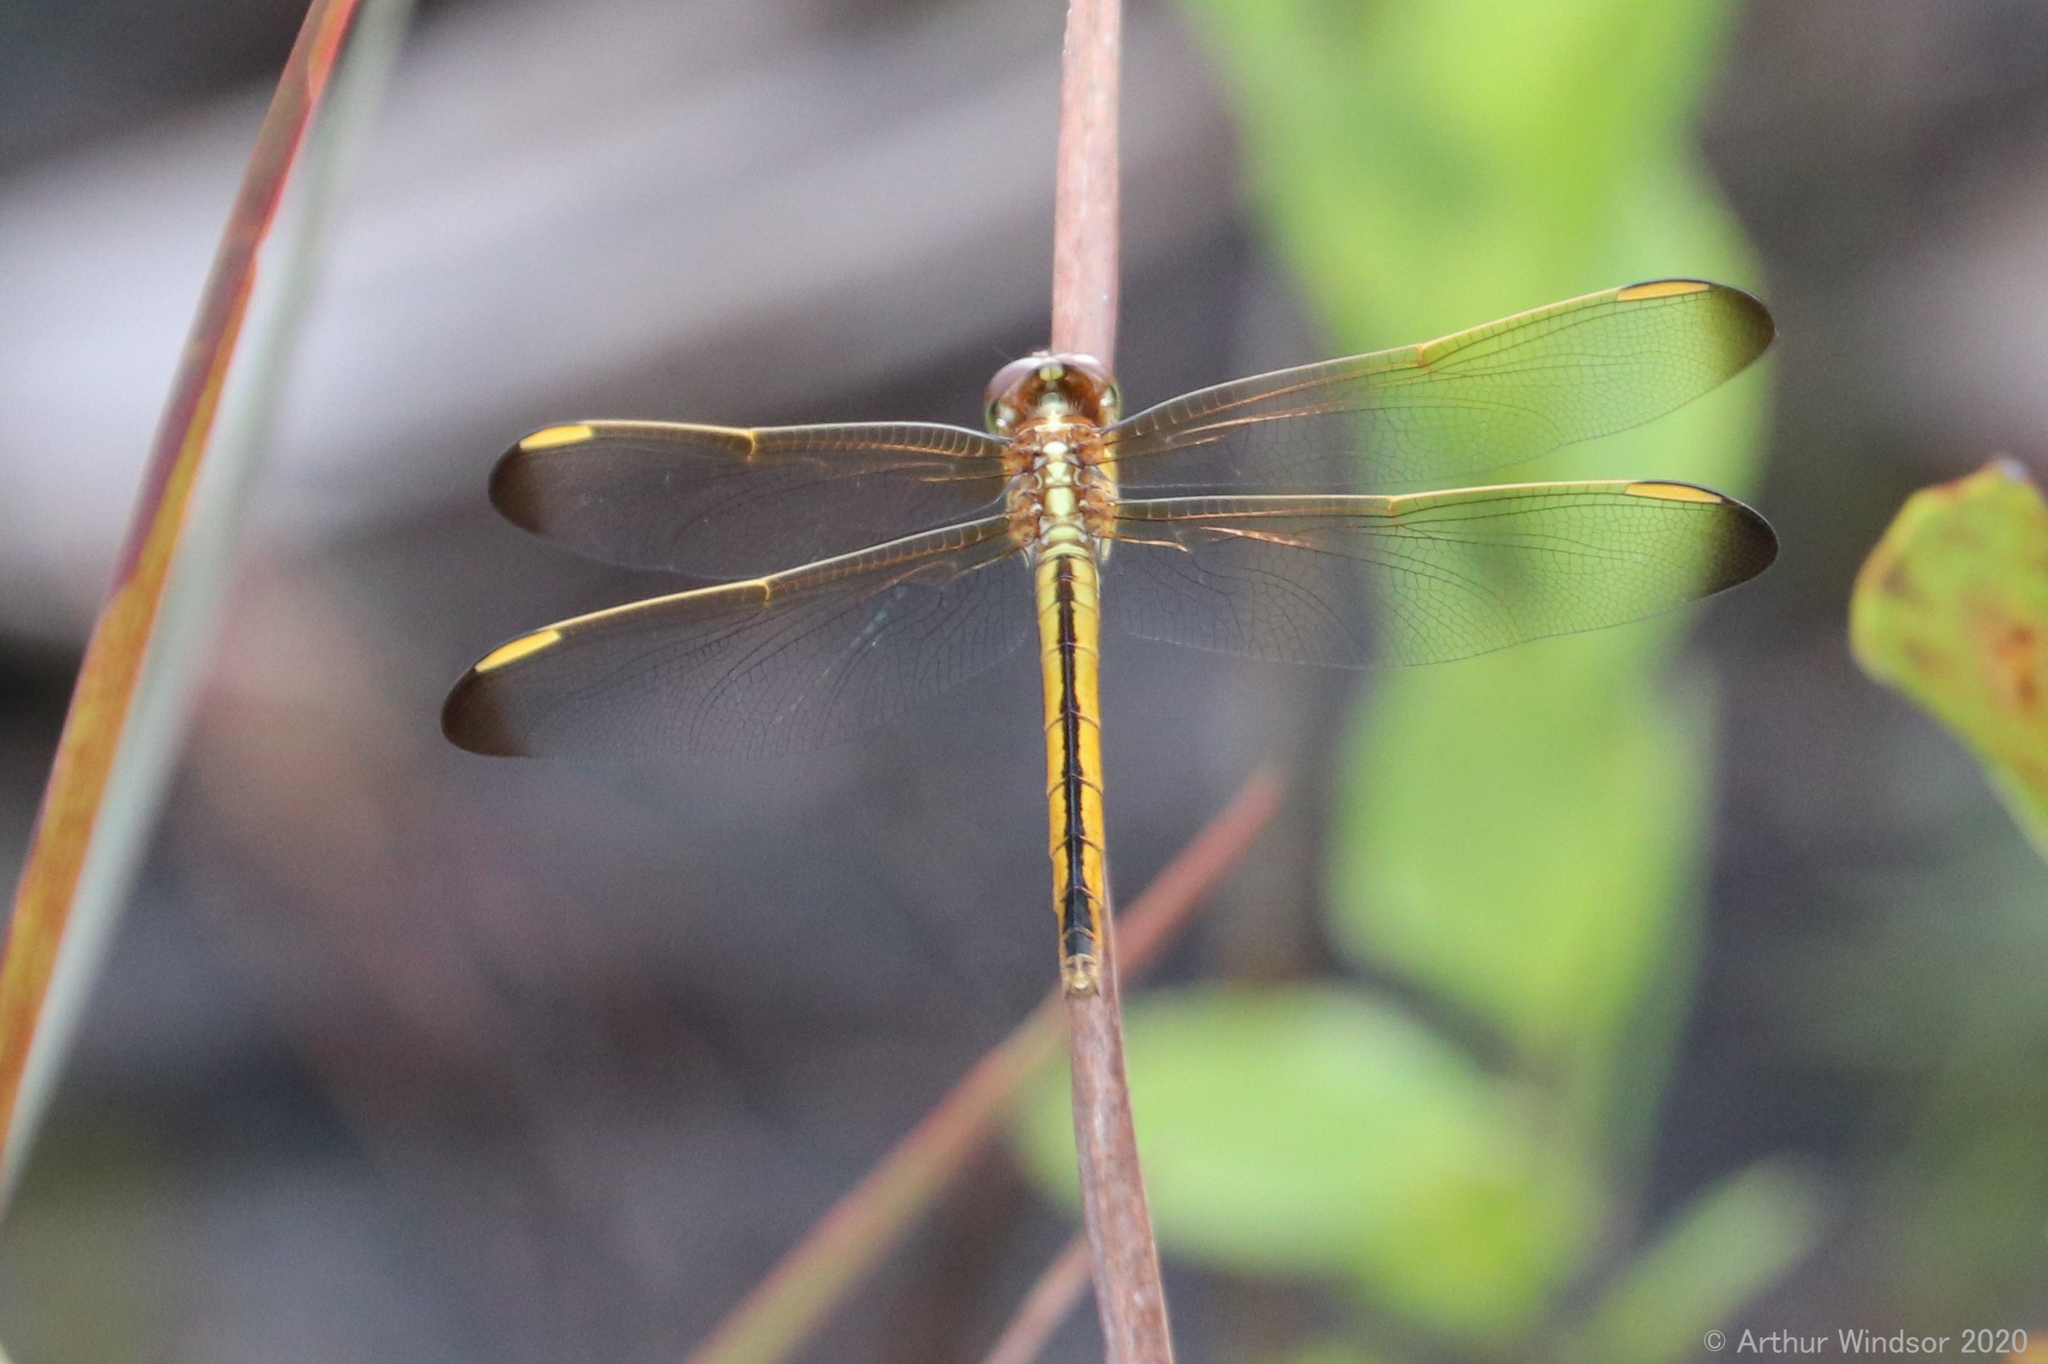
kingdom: Animalia
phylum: Arthropoda
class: Insecta
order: Odonata
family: Libellulidae
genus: Libellula
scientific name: Libellula auripennis
